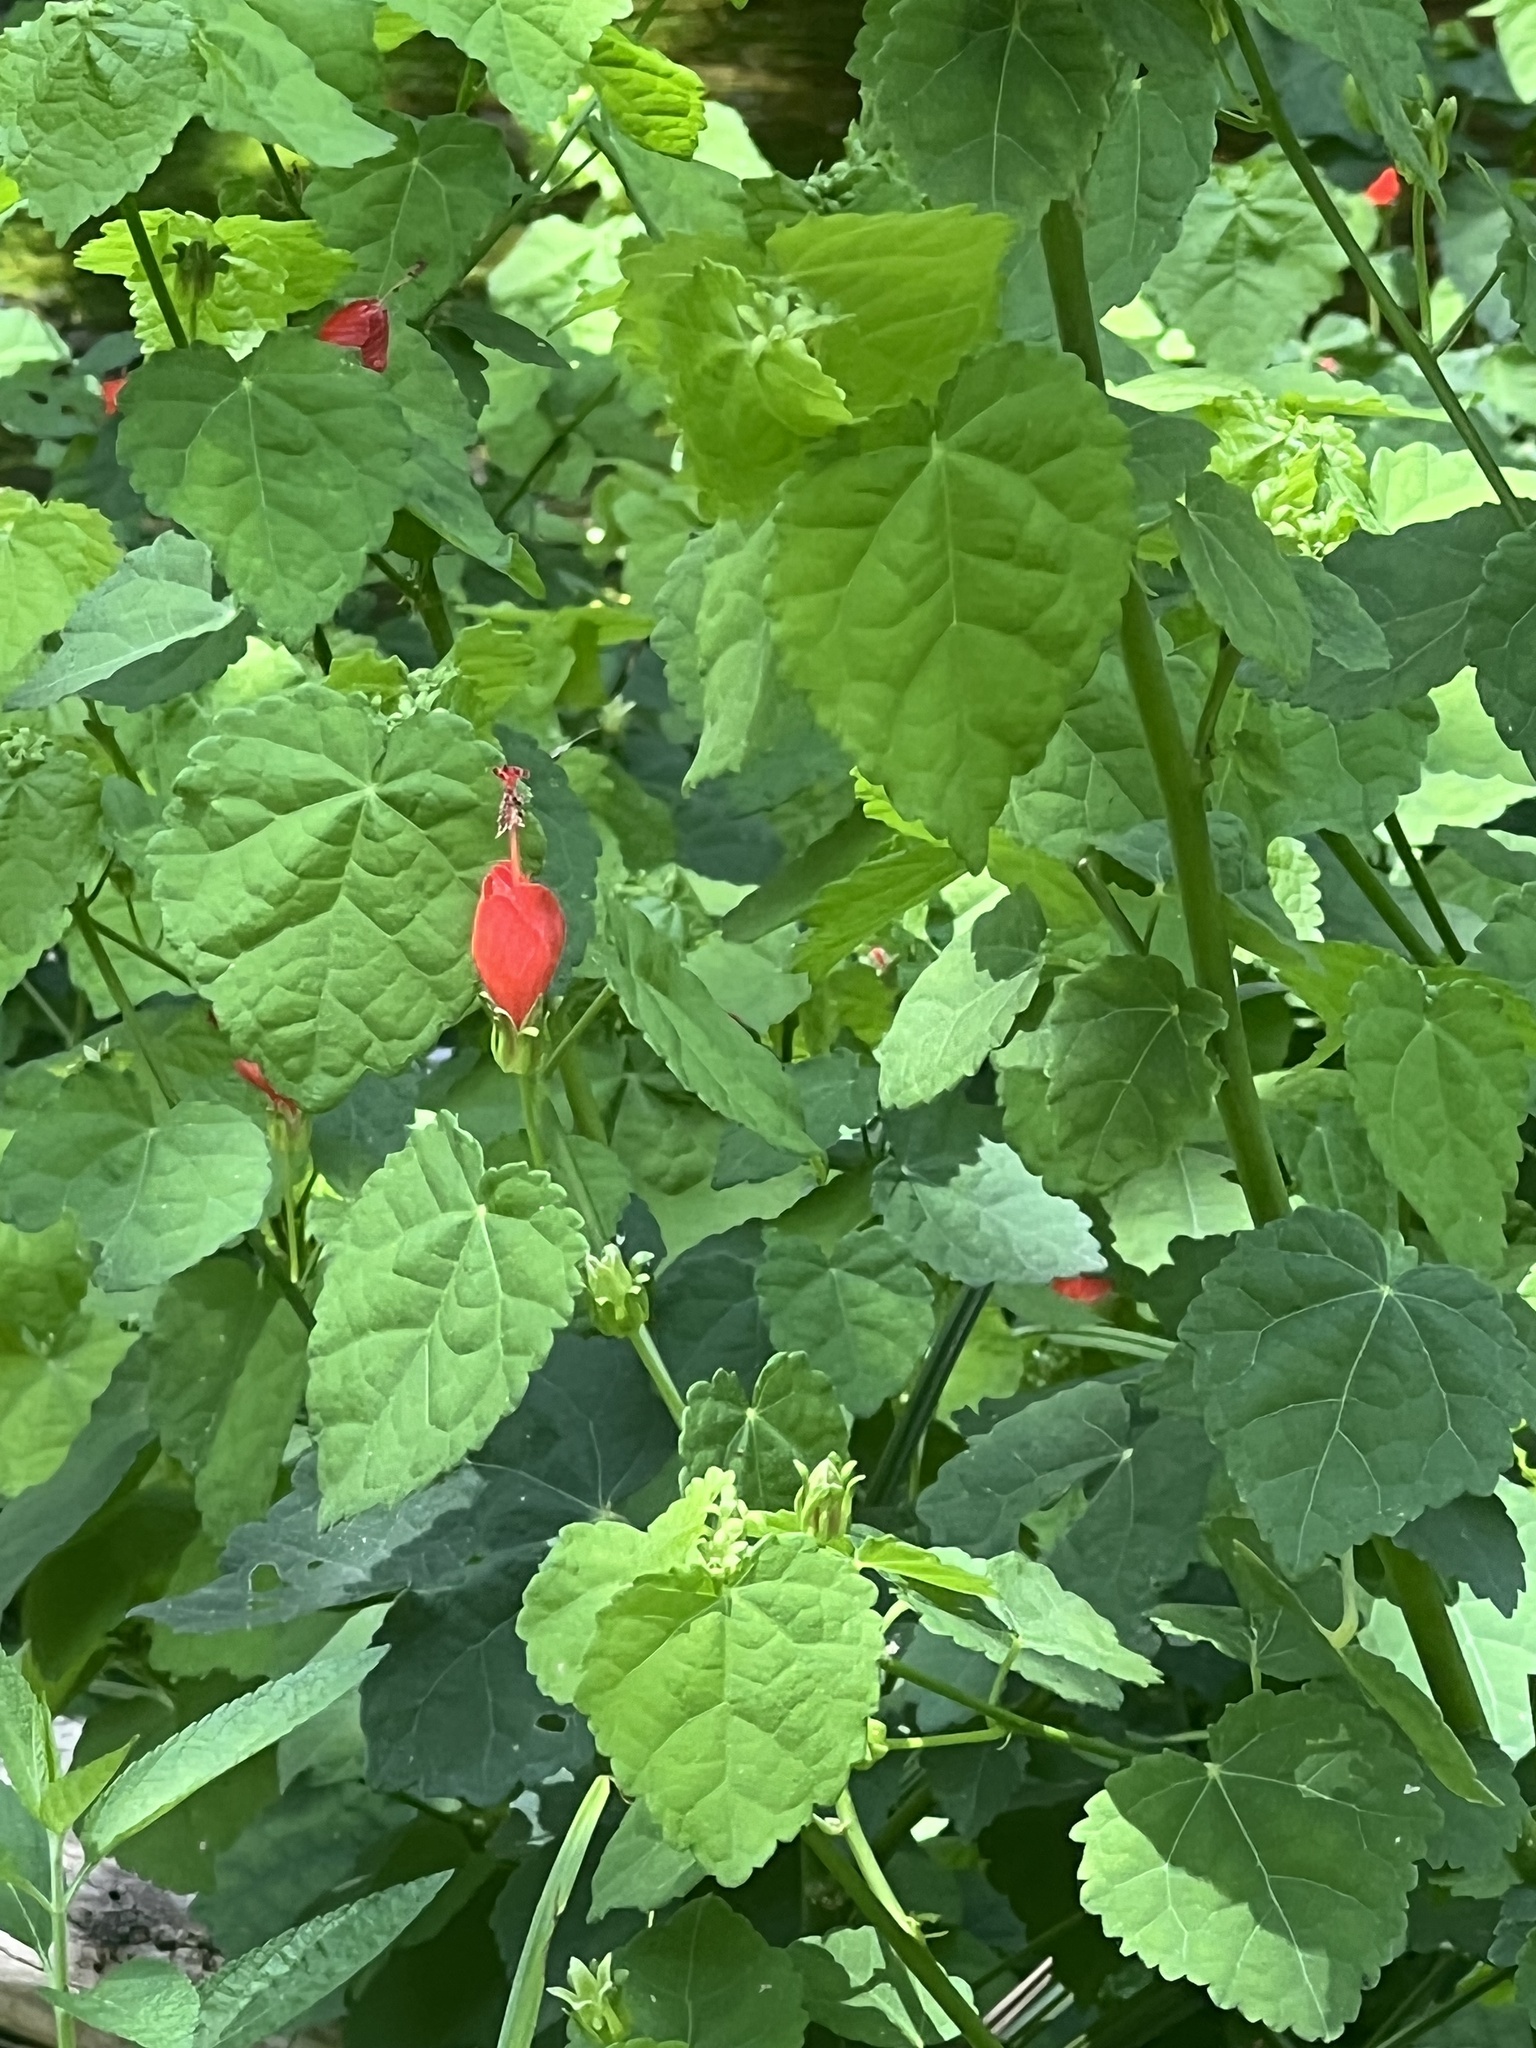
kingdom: Plantae
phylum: Tracheophyta
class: Magnoliopsida
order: Malvales
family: Malvaceae
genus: Malvaviscus
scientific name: Malvaviscus arboreus
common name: Wax mallow
